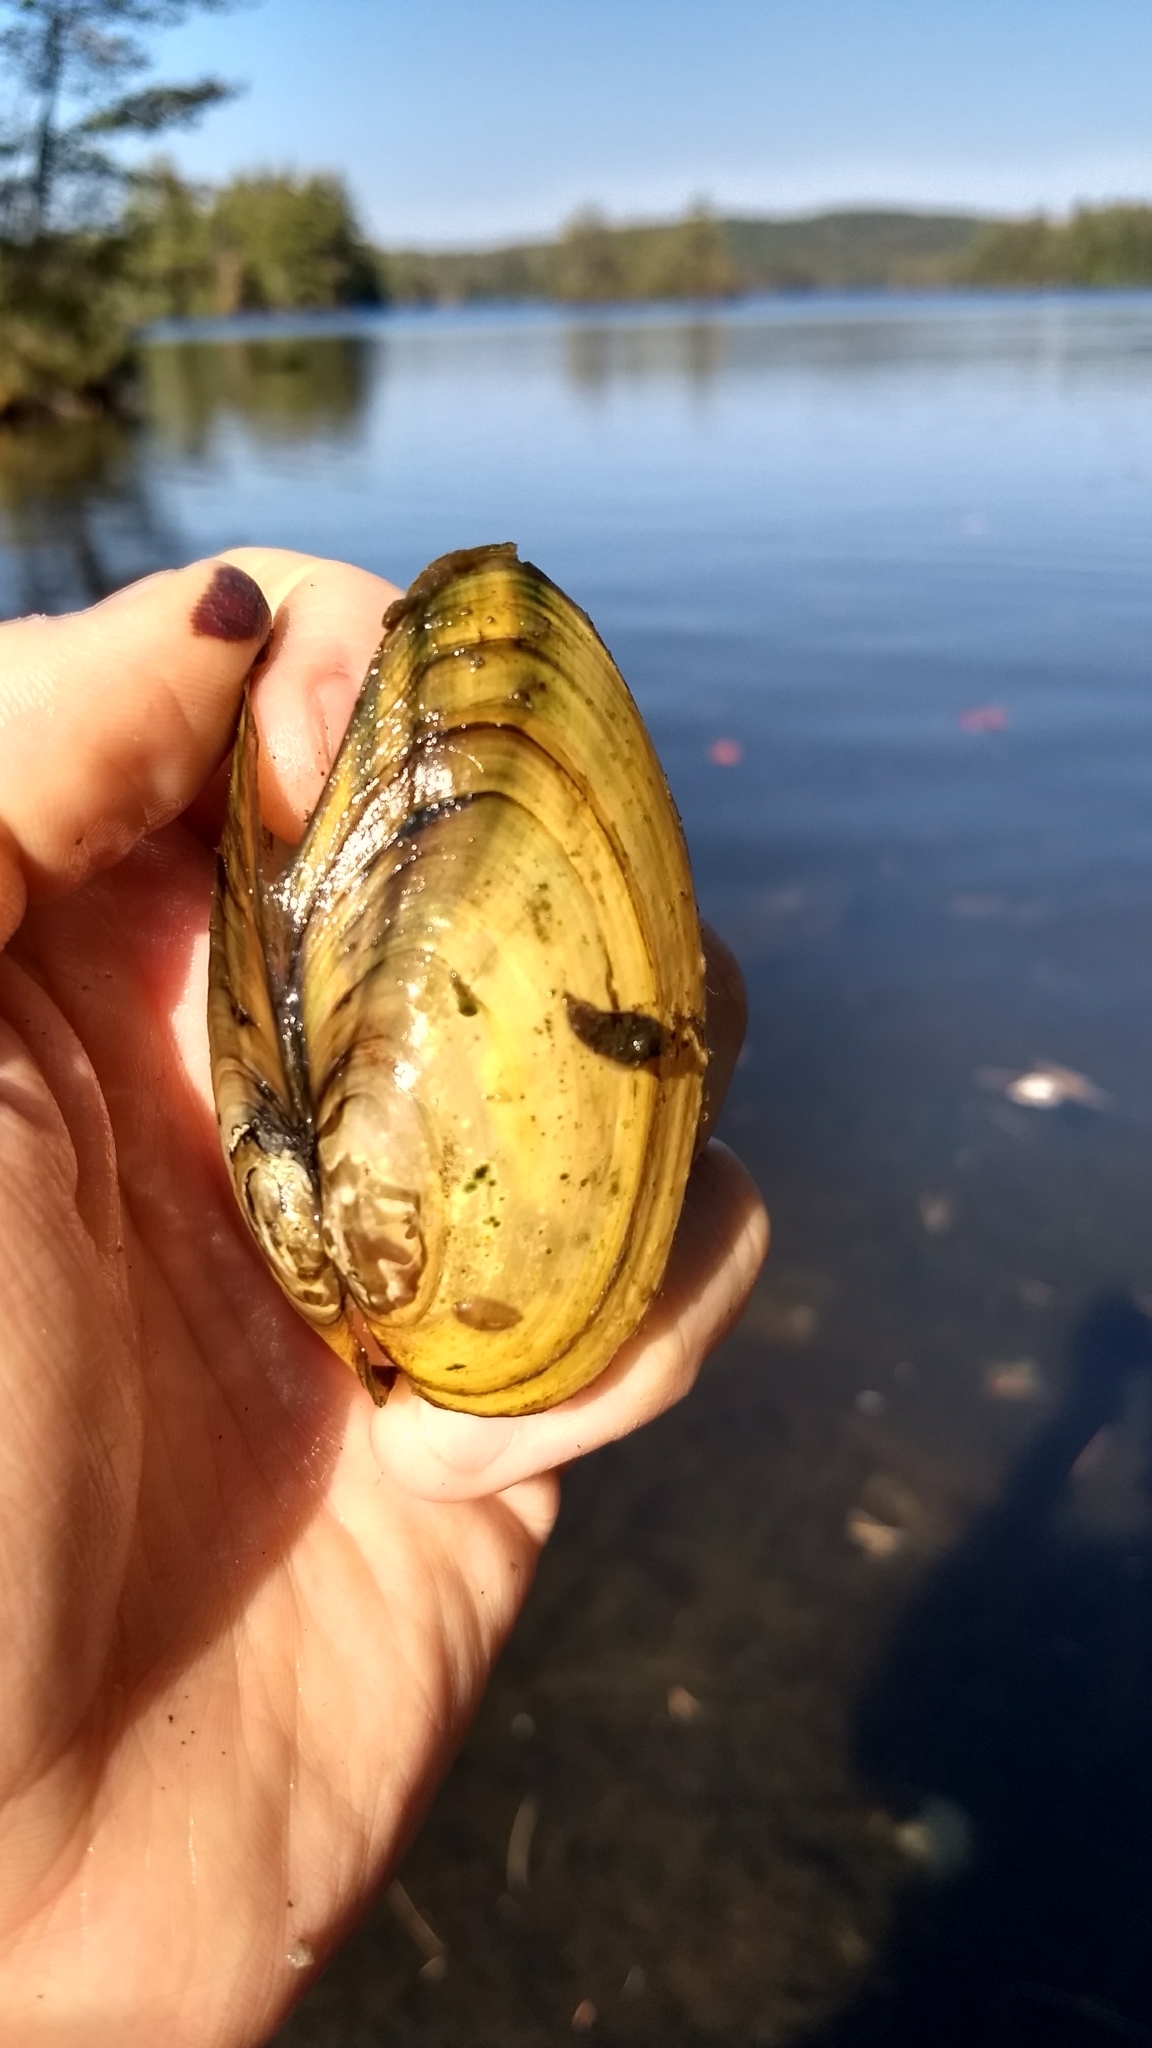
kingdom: Animalia
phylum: Mollusca
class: Bivalvia
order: Unionida
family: Unionidae
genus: Pyganodon
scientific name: Pyganodon cataracta
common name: Eastern floater
